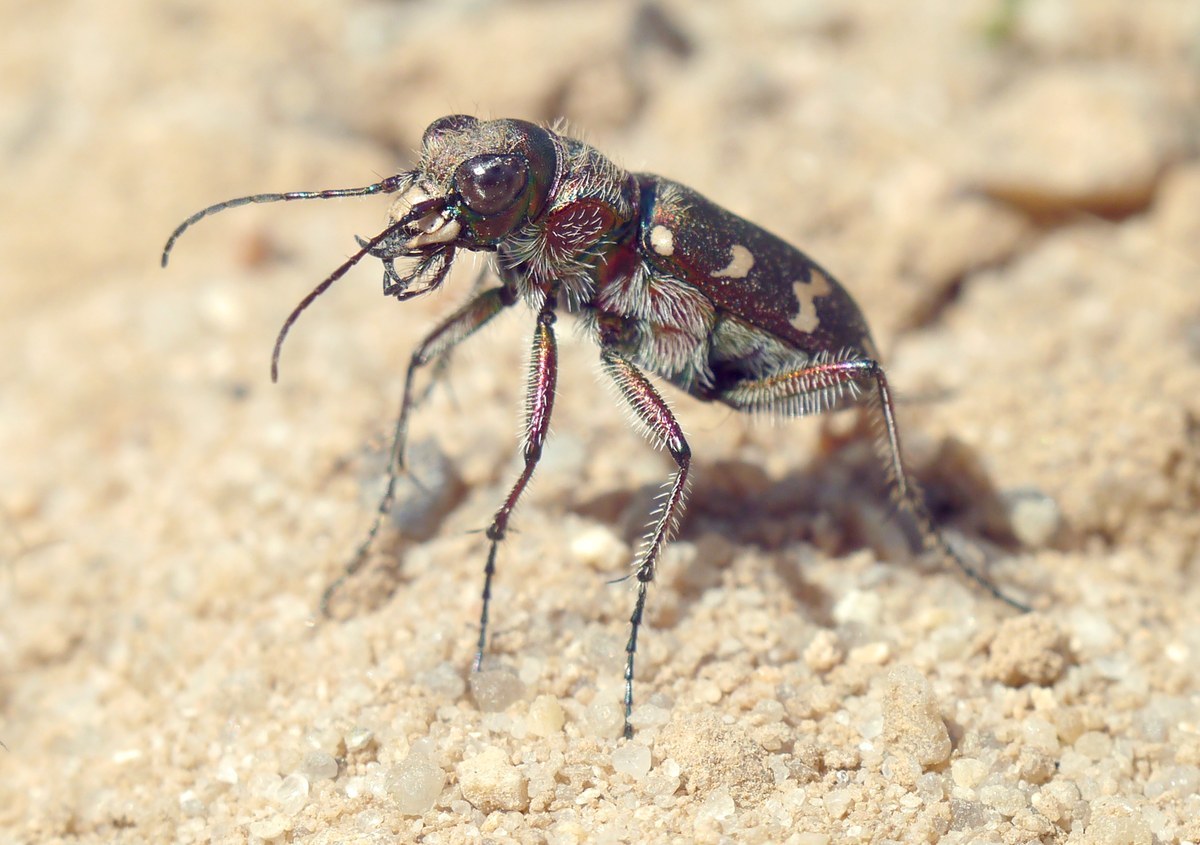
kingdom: Animalia
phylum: Arthropoda
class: Insecta
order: Coleoptera
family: Carabidae
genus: Cicindela
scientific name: Cicindela soluta
